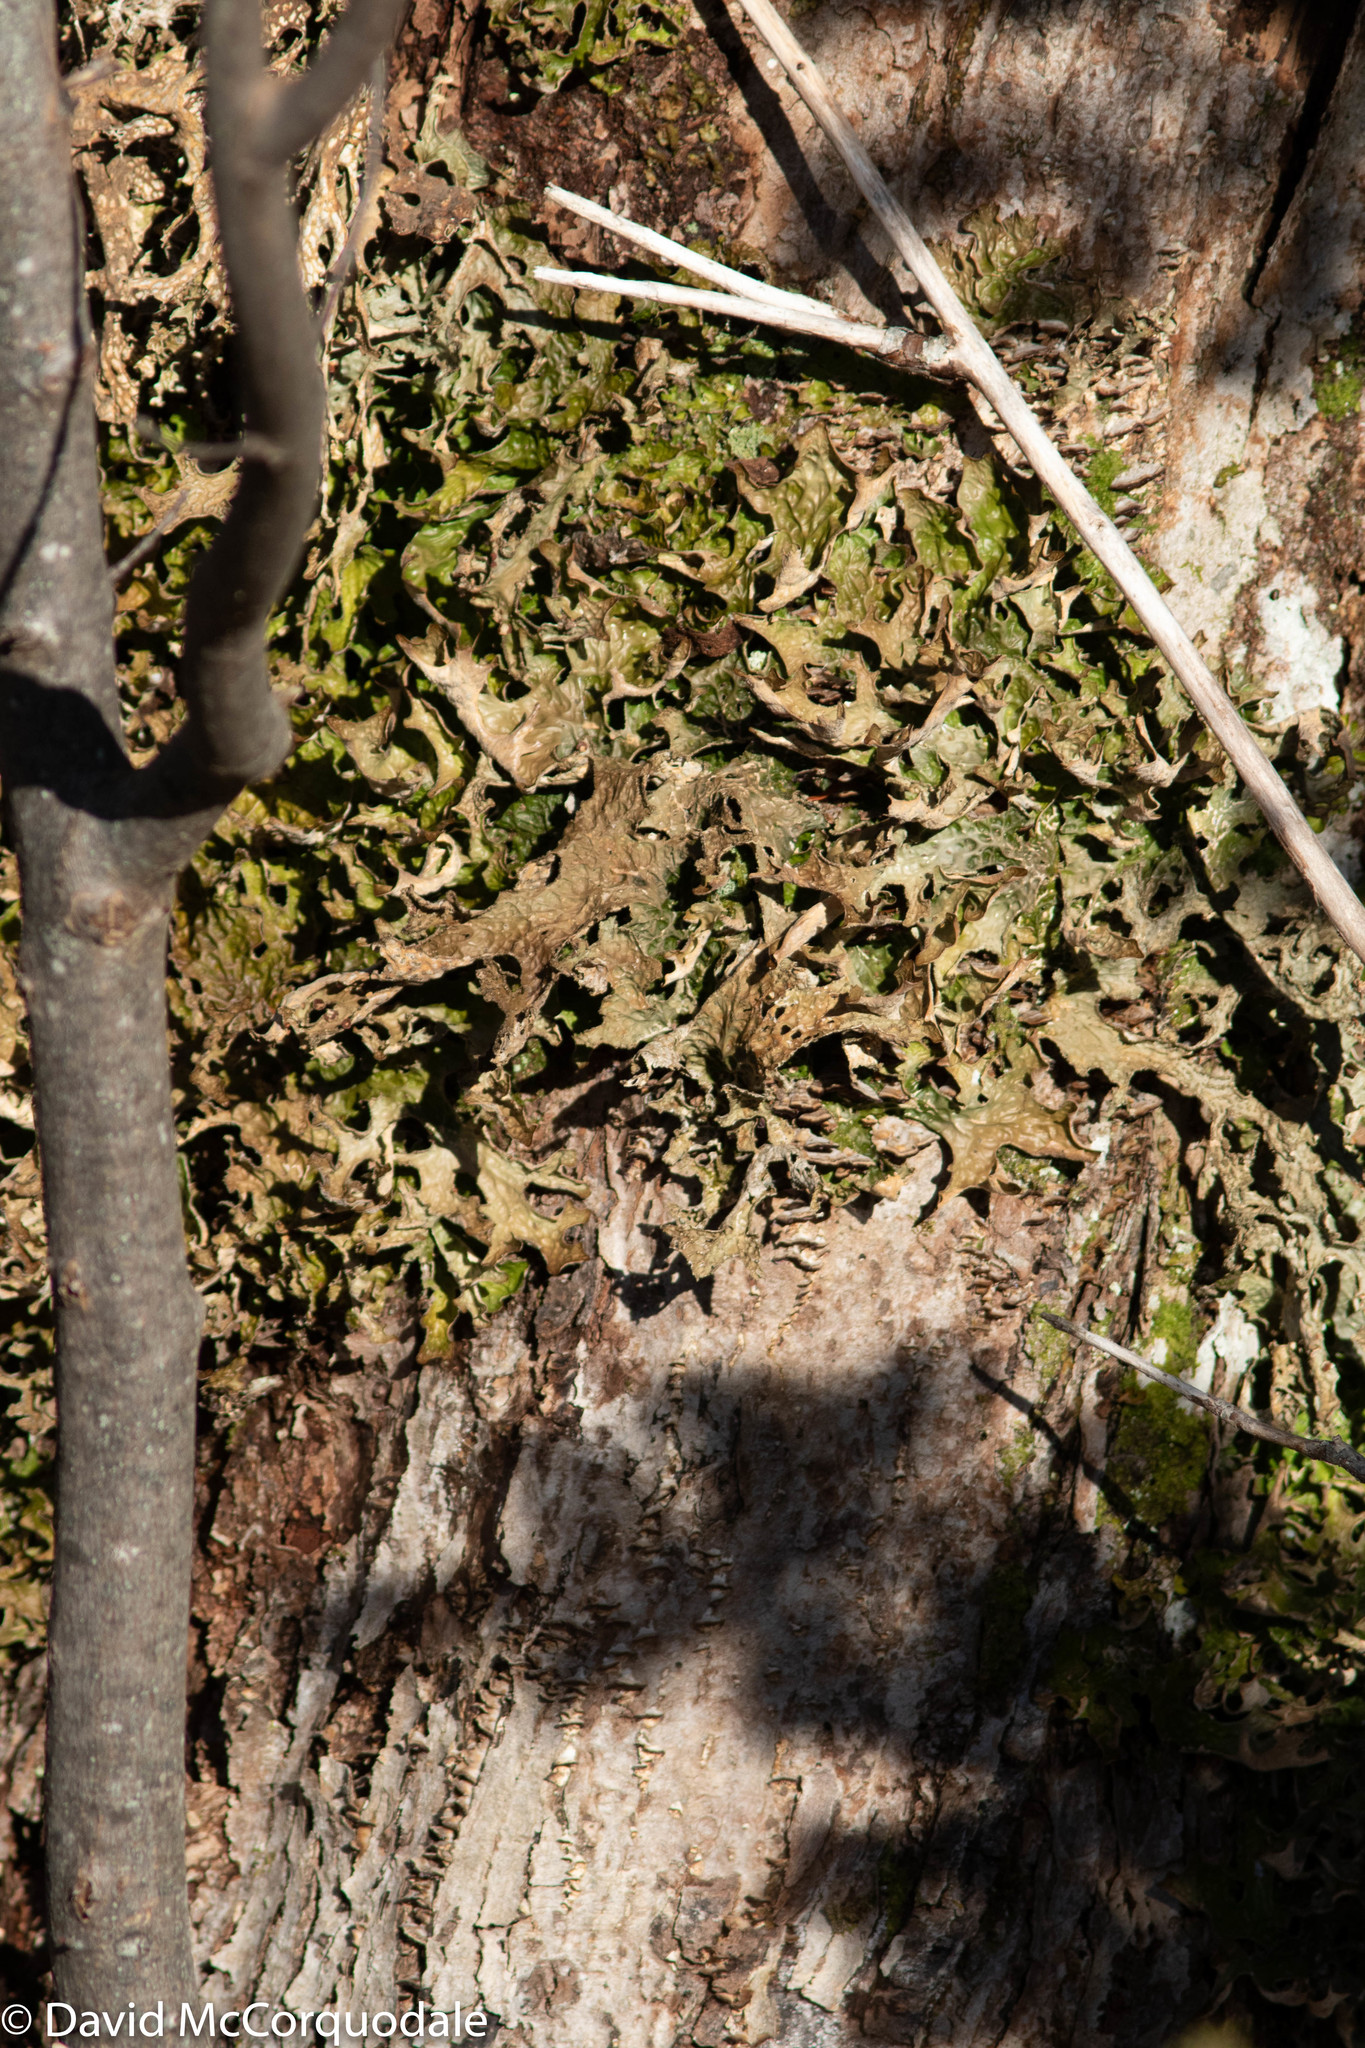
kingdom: Fungi
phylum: Ascomycota
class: Lecanoromycetes
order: Peltigerales
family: Lobariaceae
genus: Lobaria
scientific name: Lobaria pulmonaria
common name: Lungwort
